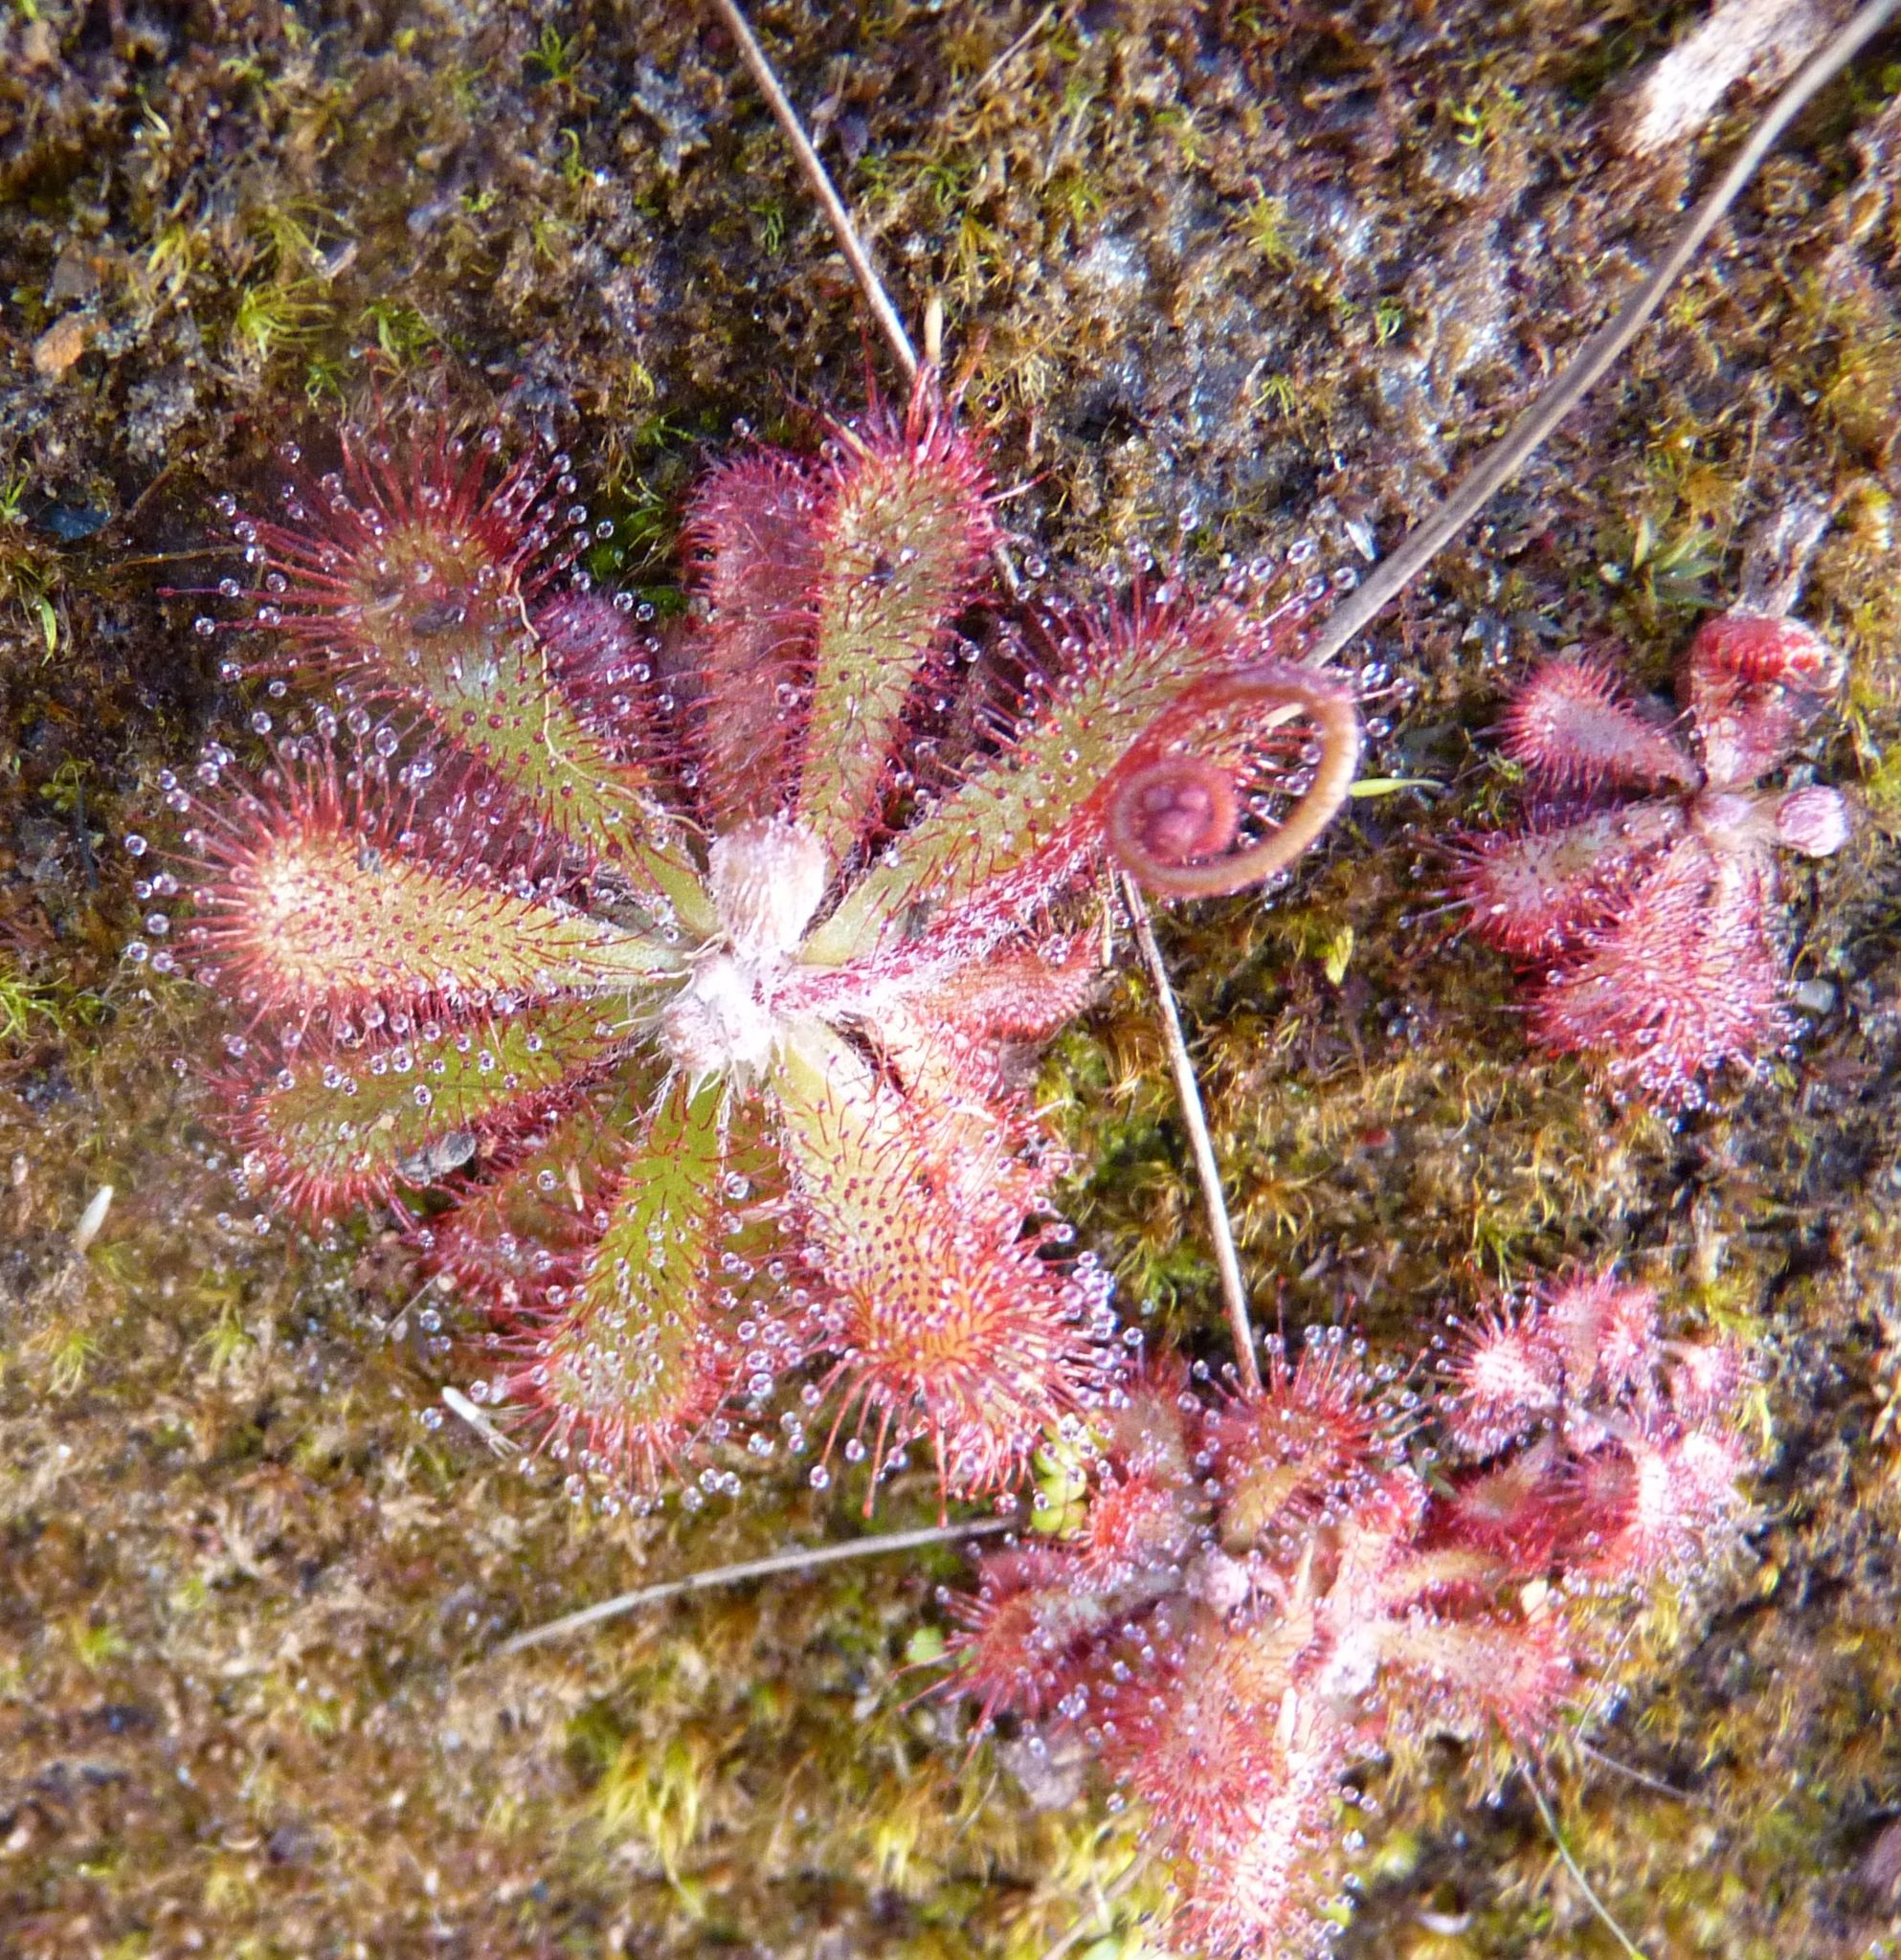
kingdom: Plantae
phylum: Tracheophyta
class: Magnoliopsida
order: Caryophyllales
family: Droseraceae
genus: Drosera
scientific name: Drosera aliciae
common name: Alice sundew
